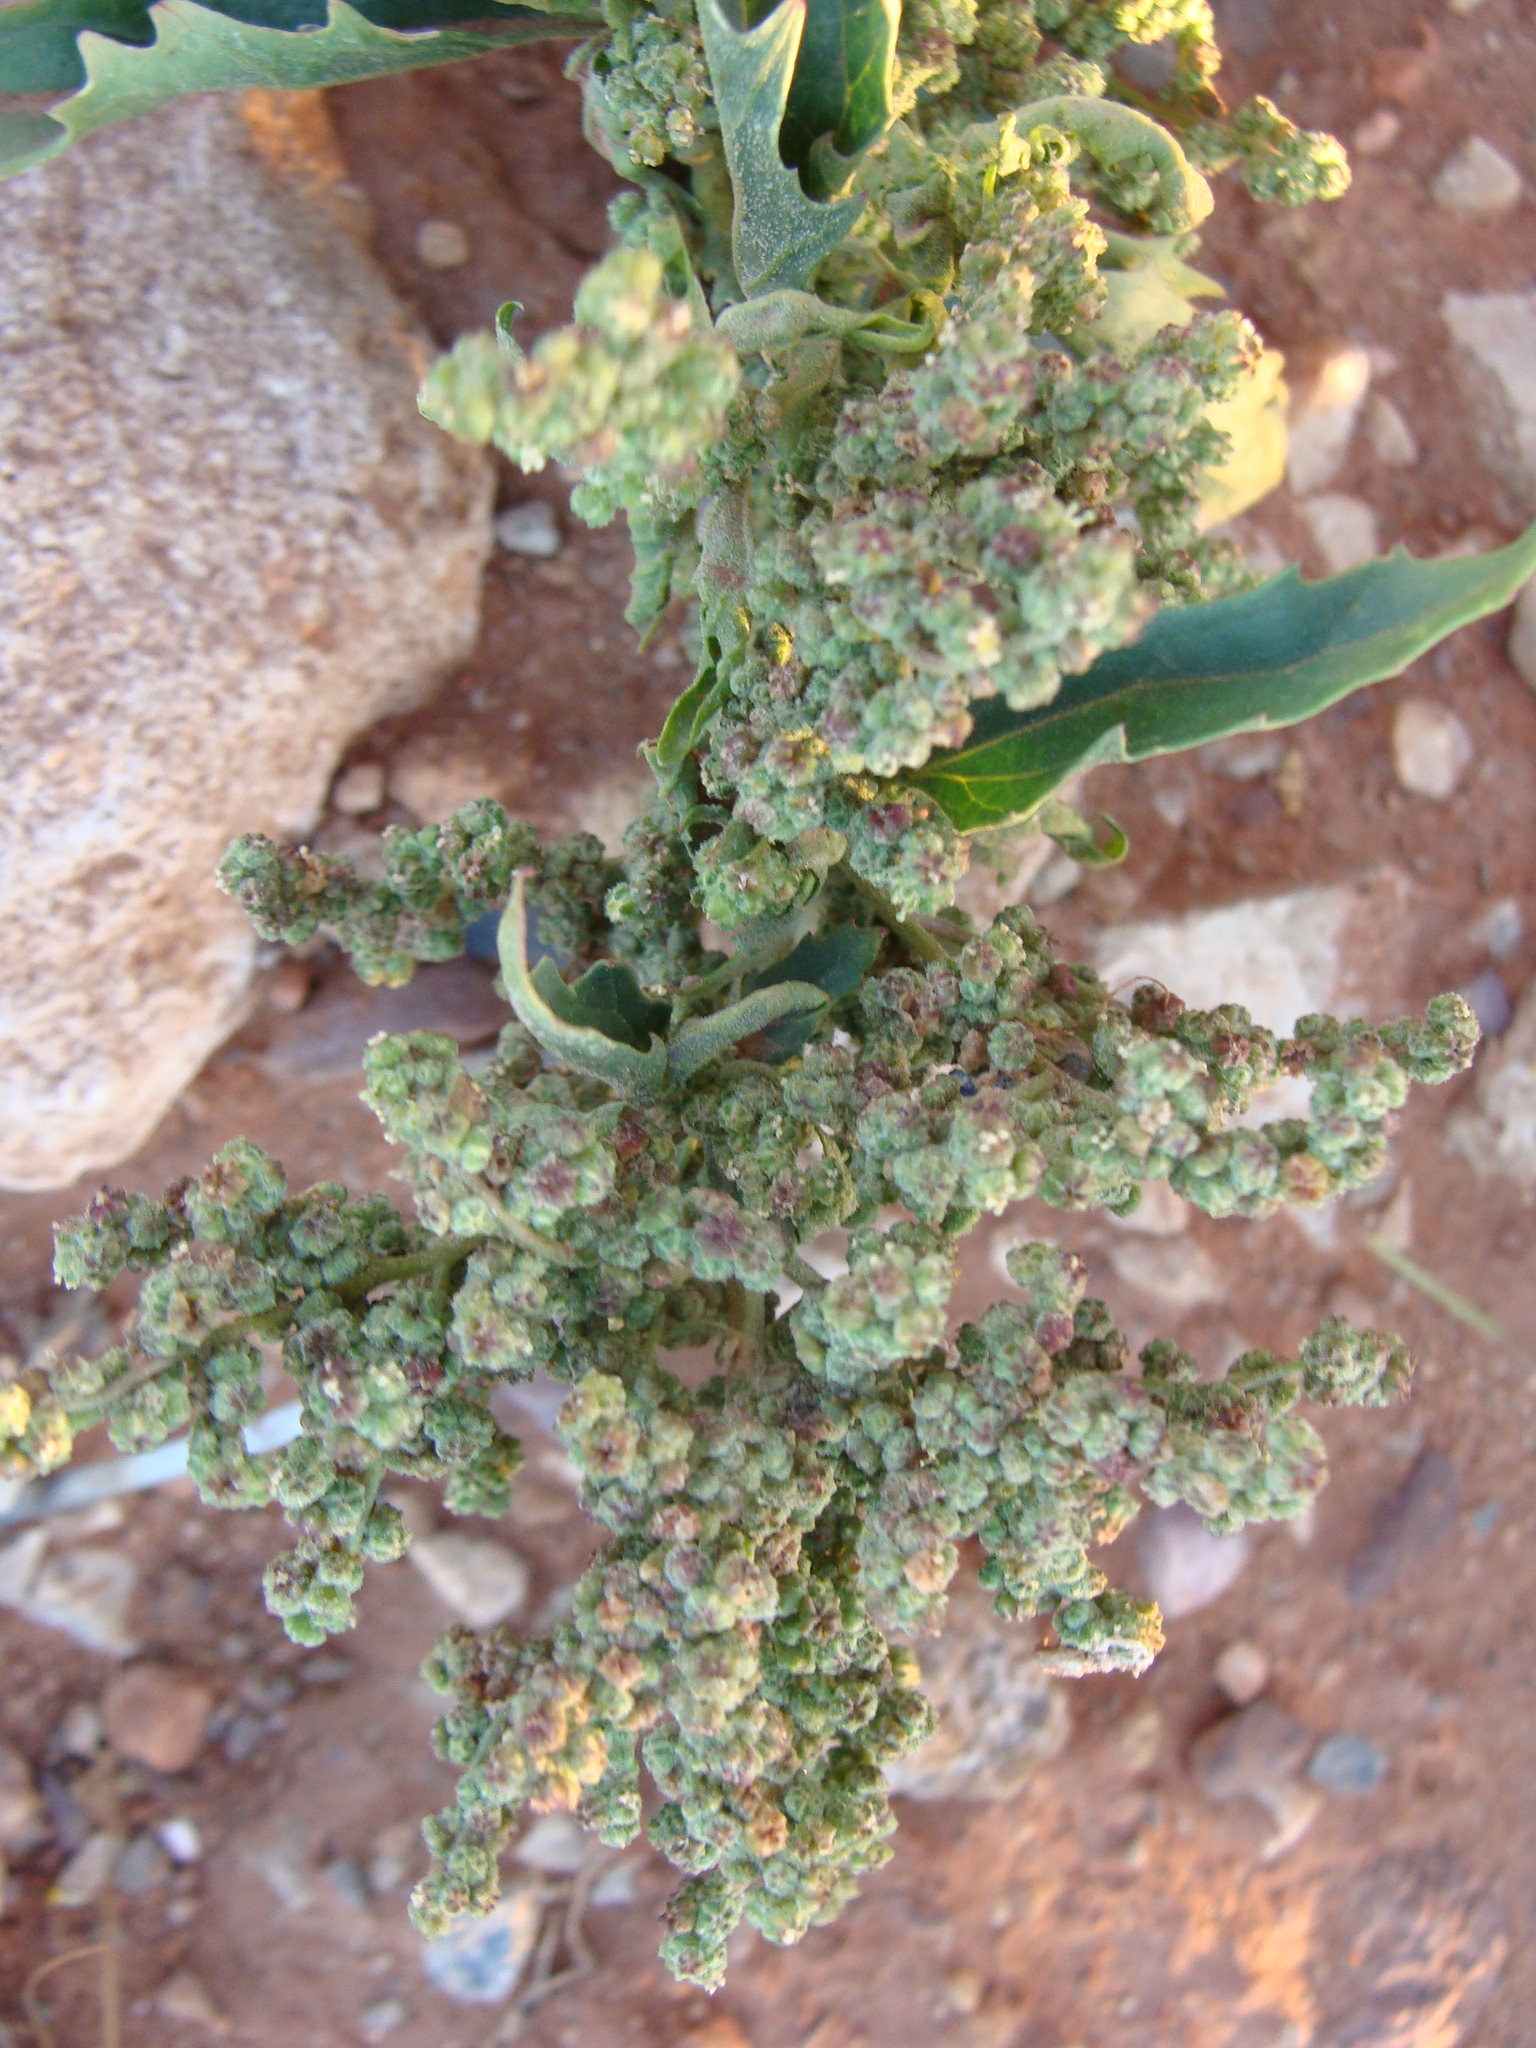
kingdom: Plantae
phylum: Tracheophyta
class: Magnoliopsida
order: Caryophyllales
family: Amaranthaceae
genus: Chenopodiastrum
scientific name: Chenopodiastrum murale
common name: Sowbane
